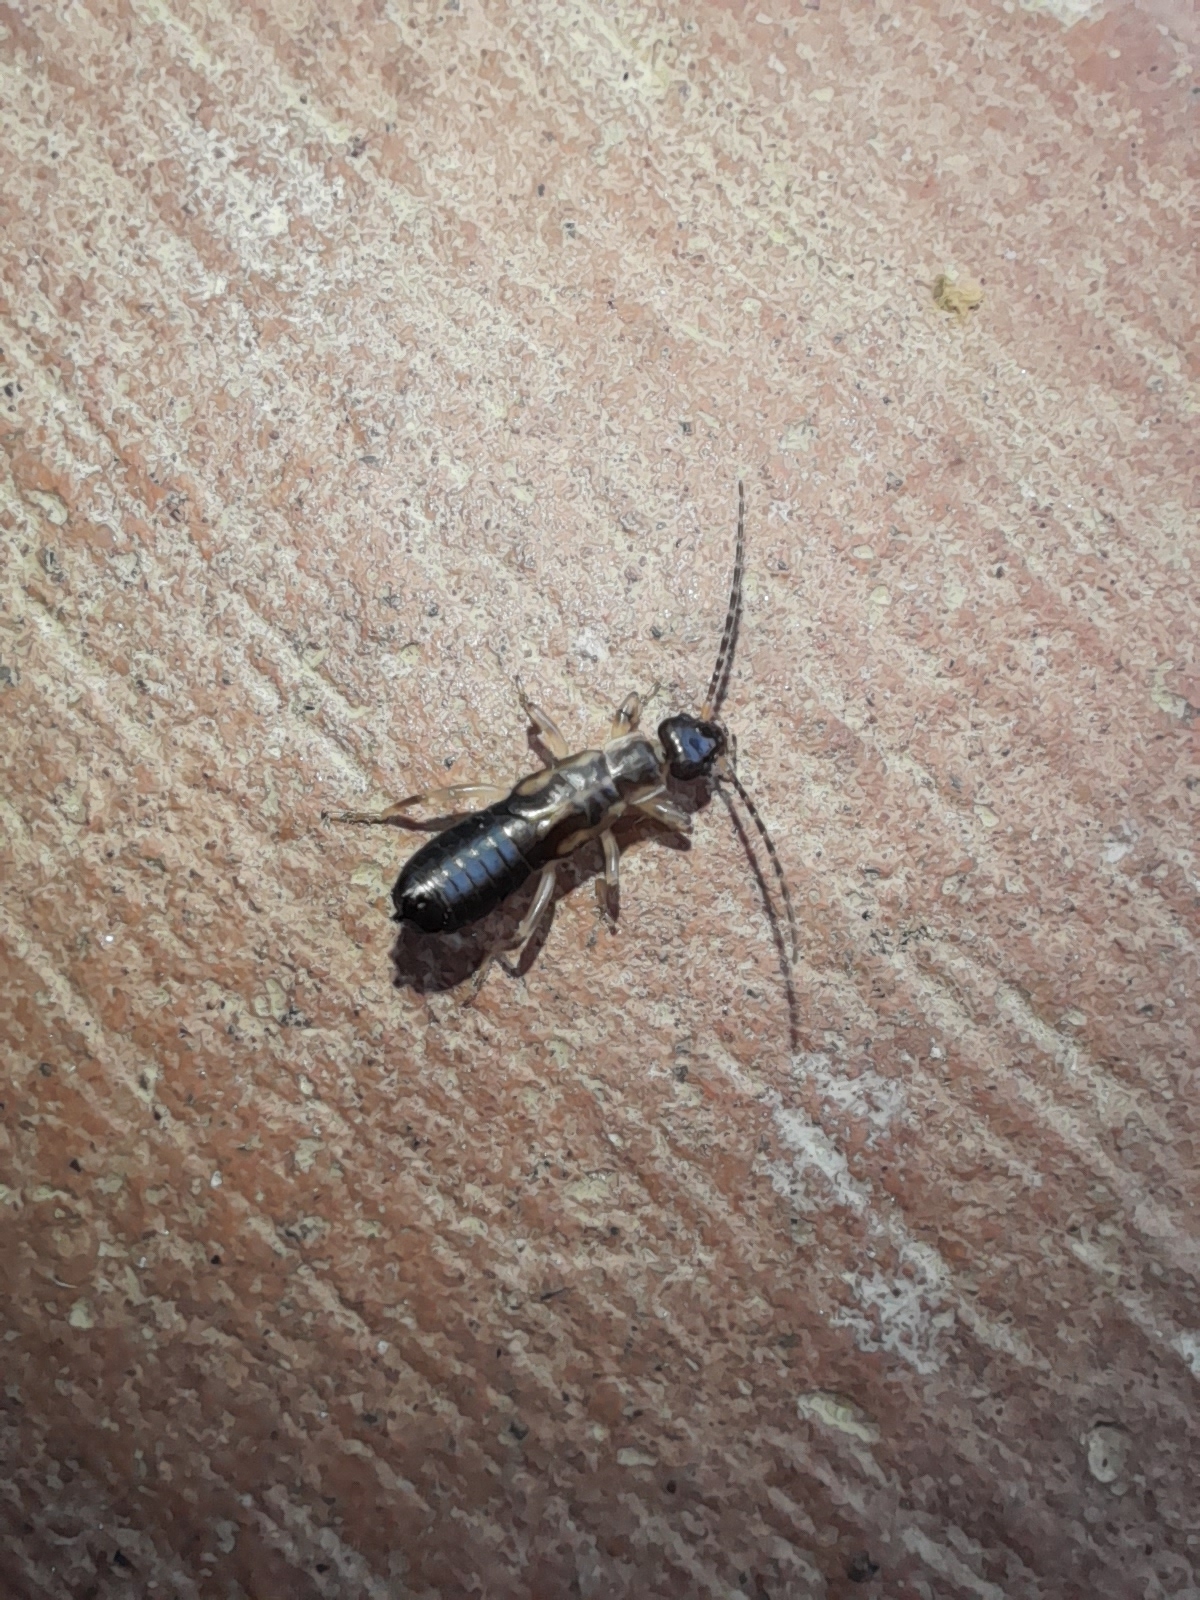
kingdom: Animalia
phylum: Arthropoda
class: Insecta
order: Dermaptera
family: Forficulidae
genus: Forficula
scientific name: Forficula
